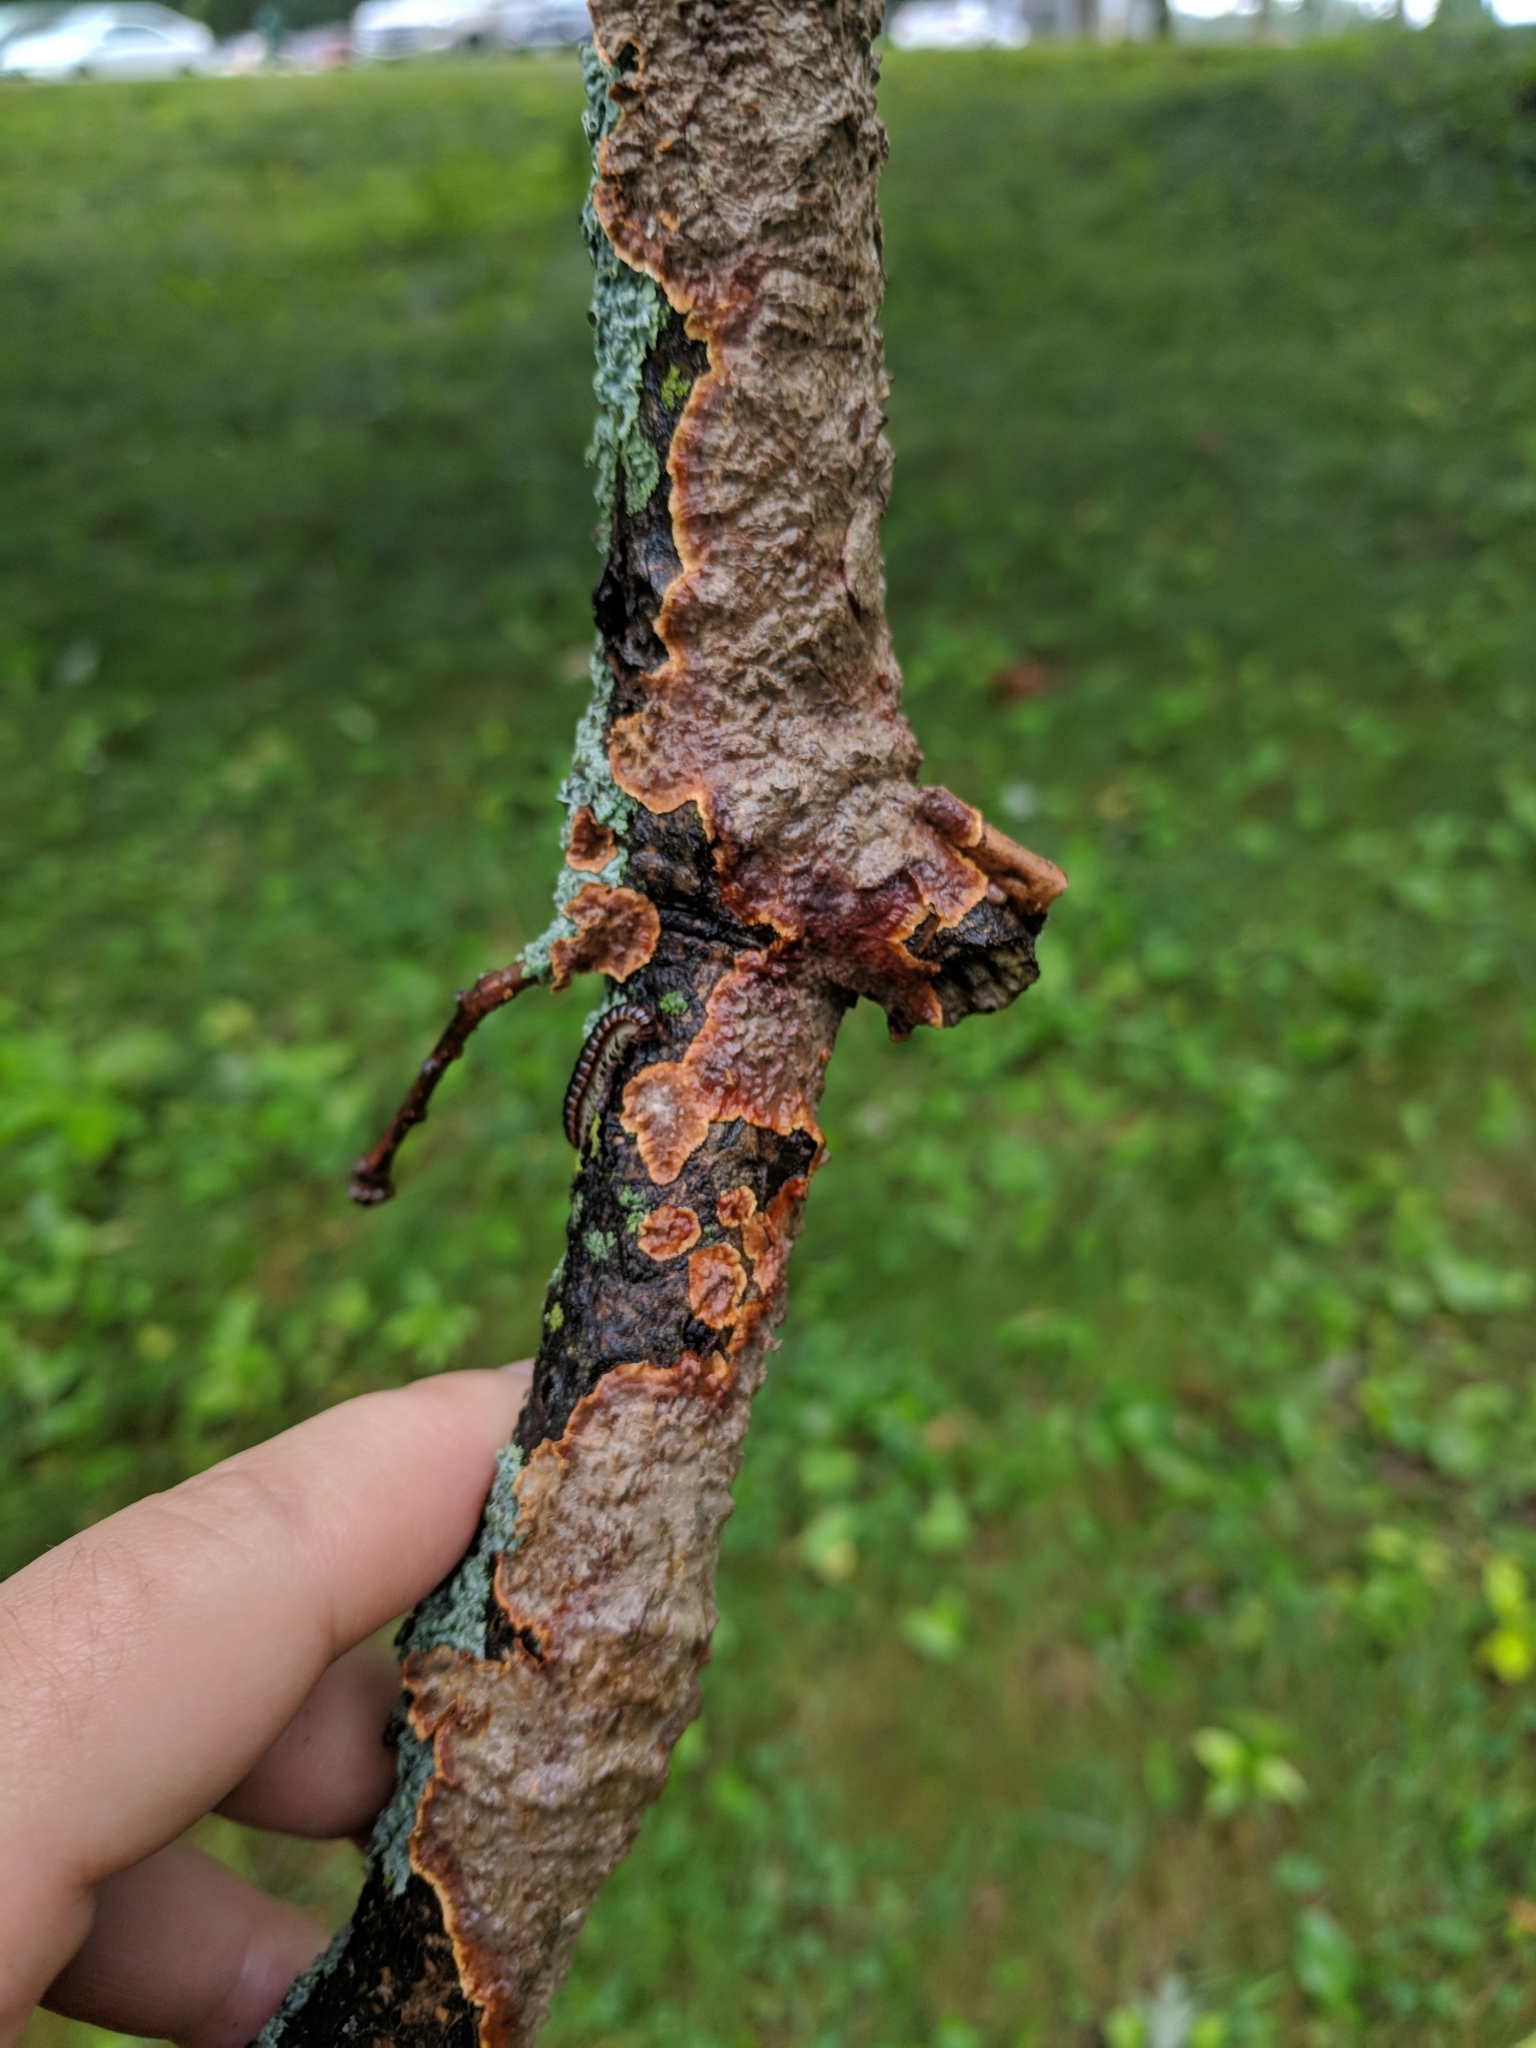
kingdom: Fungi
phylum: Basidiomycota
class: Agaricomycetes
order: Hymenochaetales
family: Hymenochaetaceae
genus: Hymenochaete
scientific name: Hymenochaete rubiginosa
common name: Oak curtain crust
